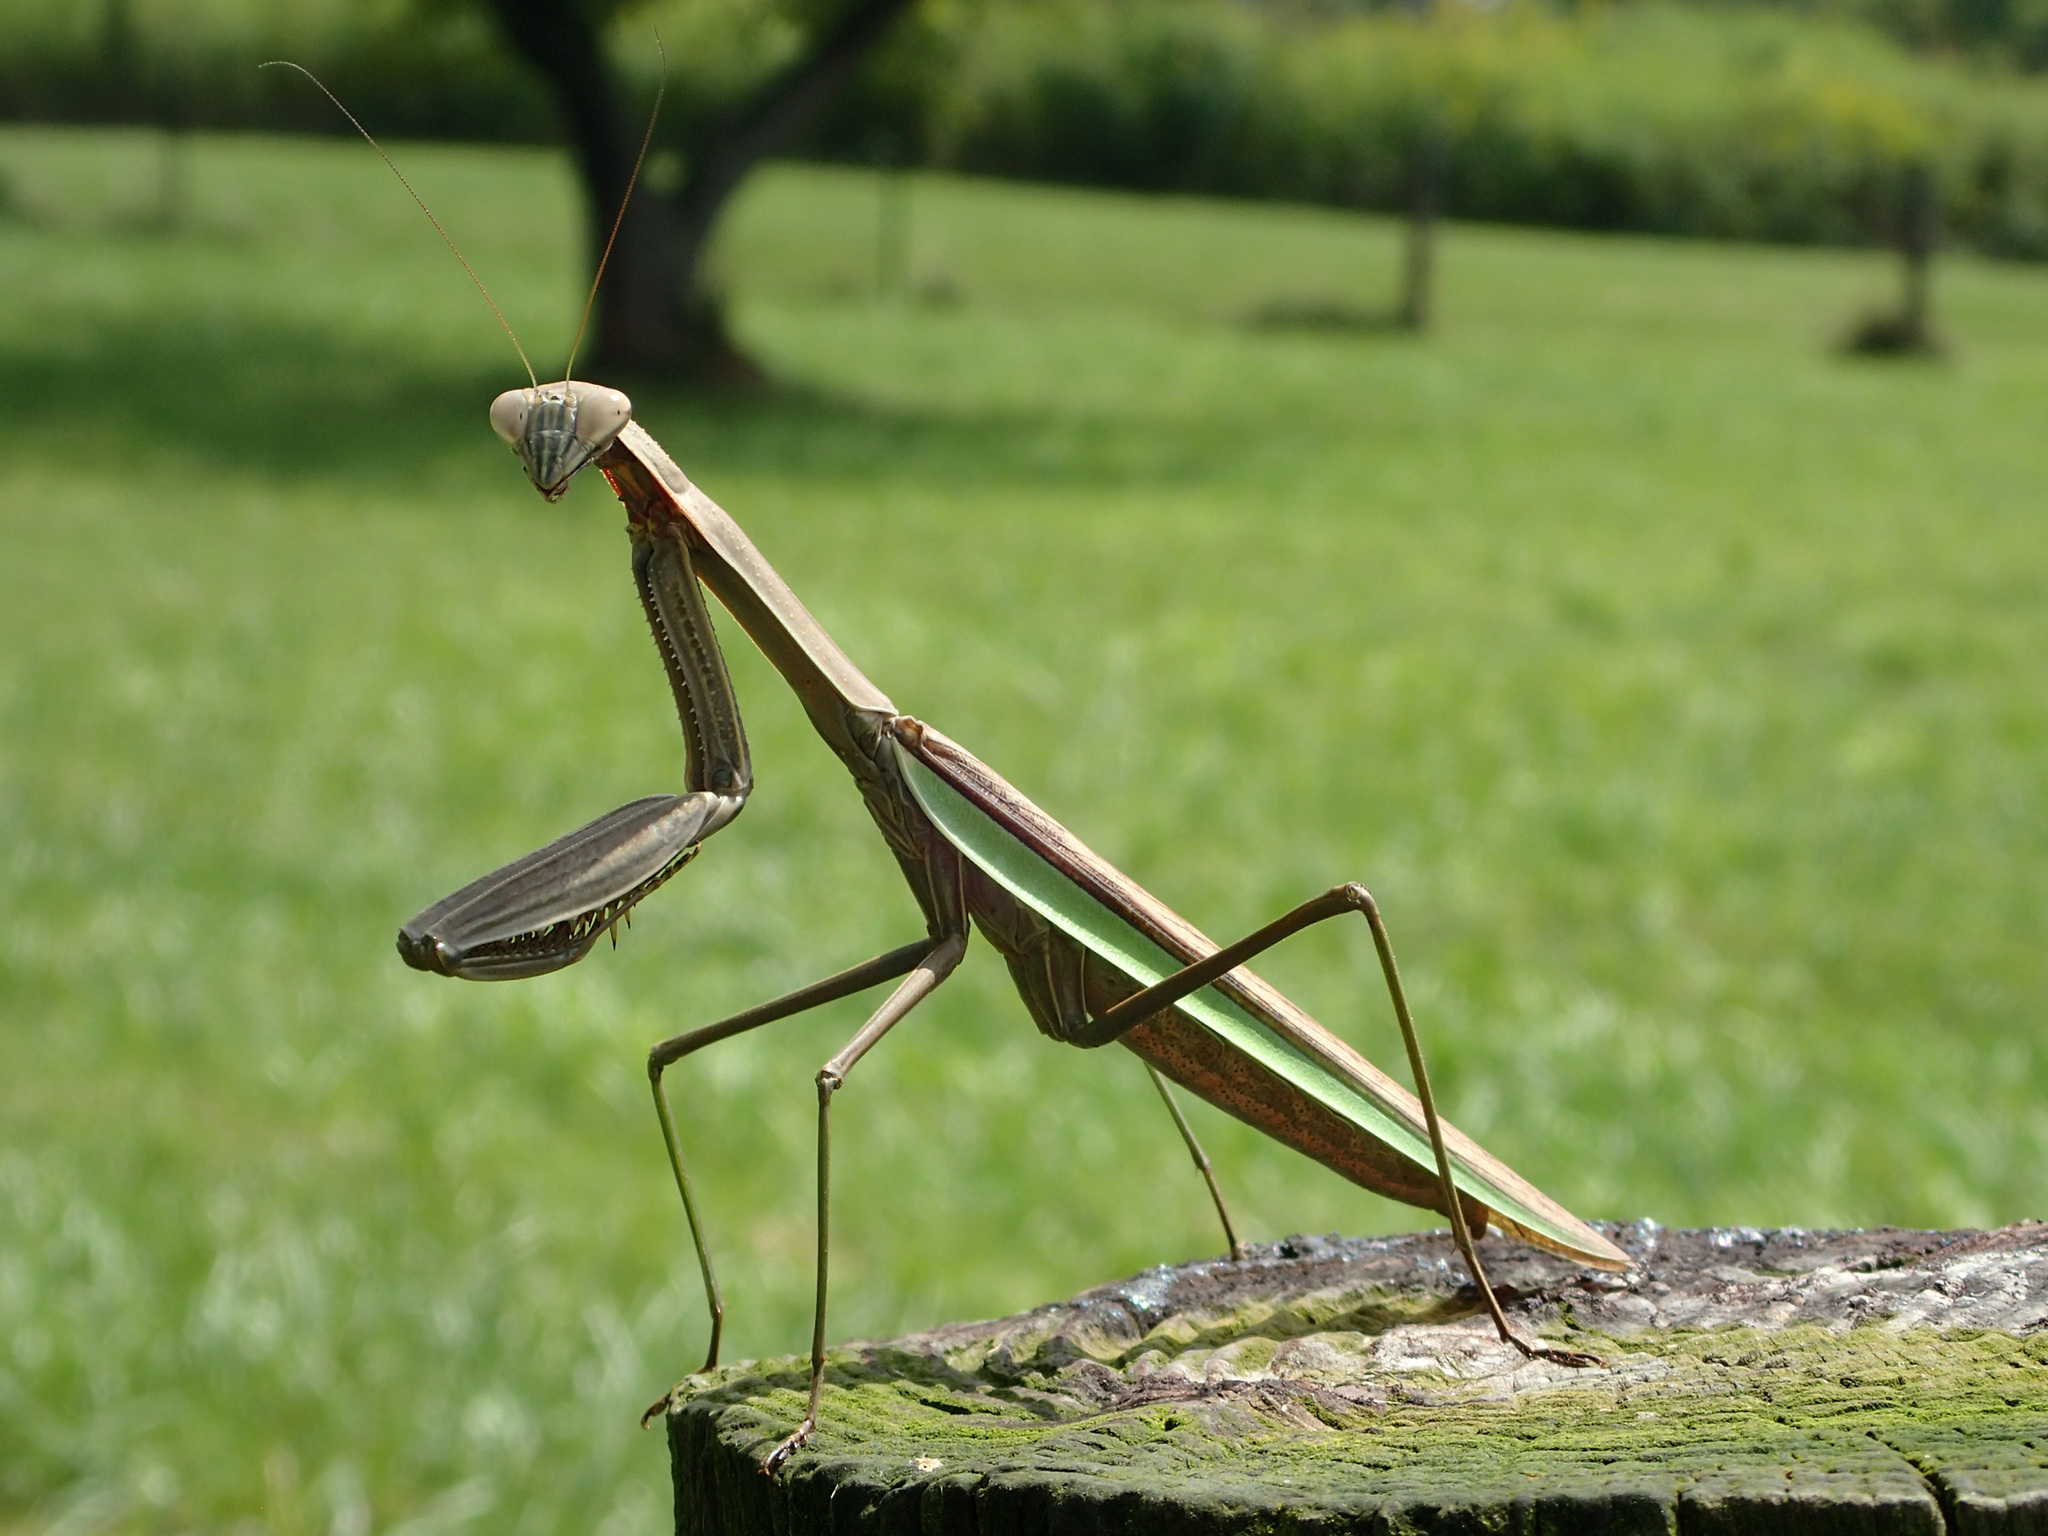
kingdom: Animalia
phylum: Arthropoda
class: Insecta
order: Mantodea
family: Mantidae
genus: Tenodera
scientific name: Tenodera sinensis
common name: Chinese mantis
